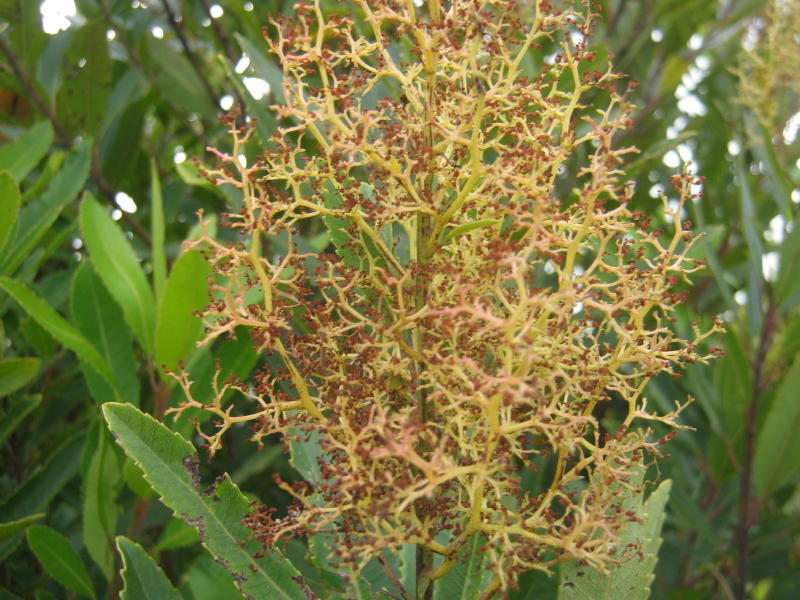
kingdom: Plantae
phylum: Tracheophyta
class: Magnoliopsida
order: Sapindales
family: Anacardiaceae
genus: Laurophyllus
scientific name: Laurophyllus capensis
